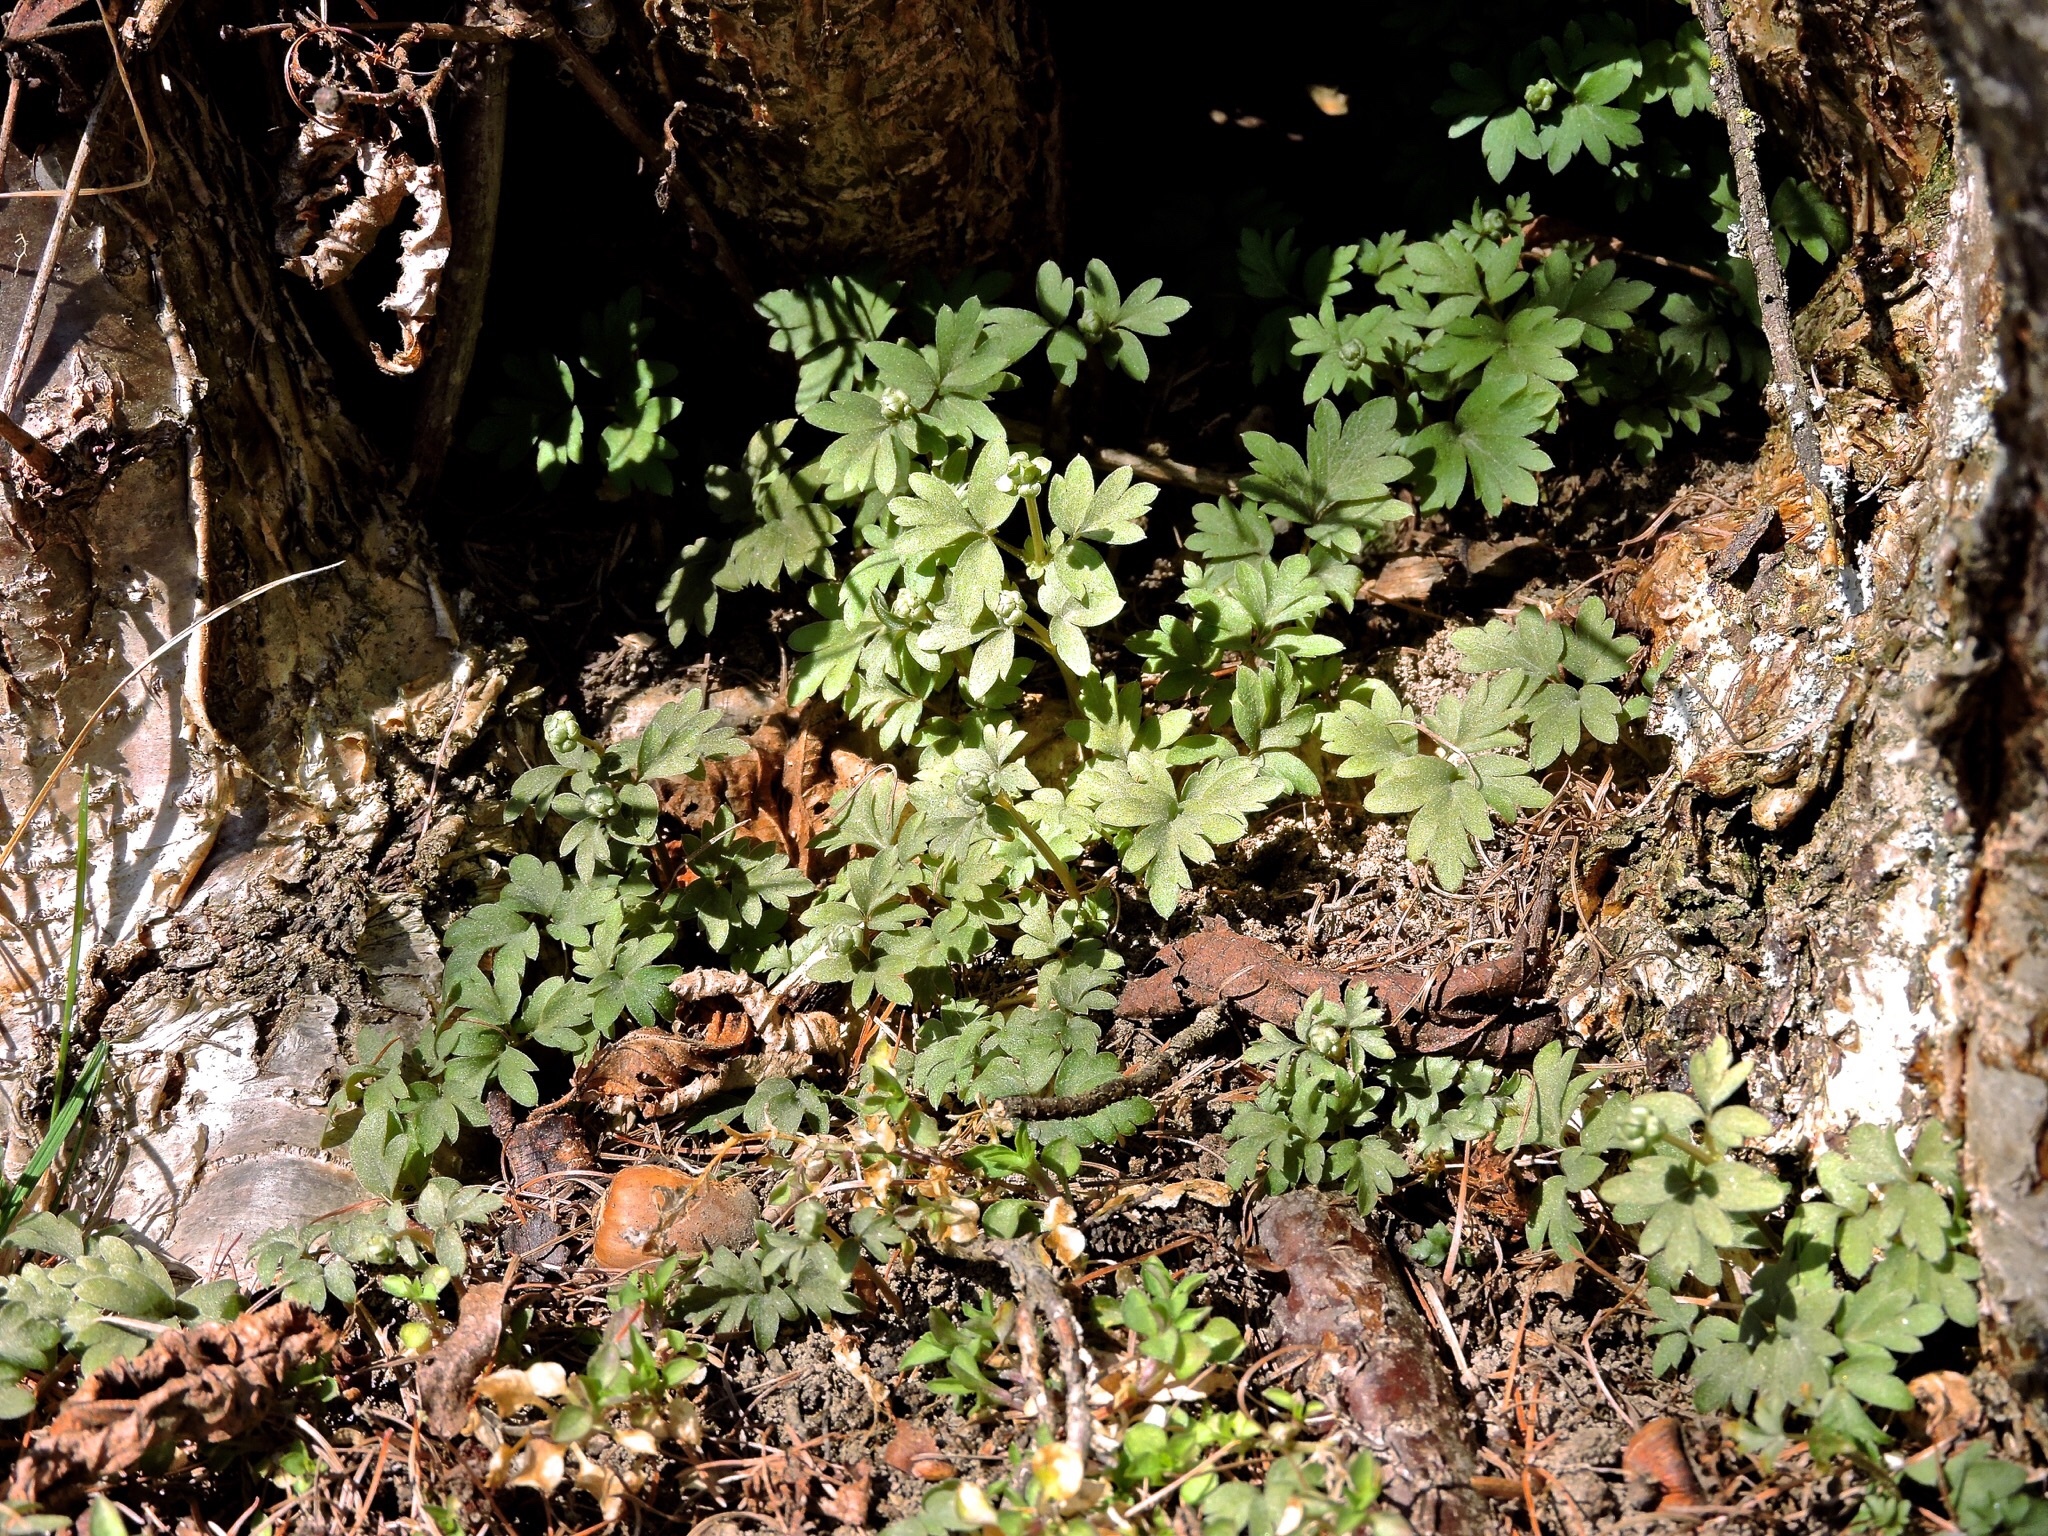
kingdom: Plantae
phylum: Tracheophyta
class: Magnoliopsida
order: Dipsacales
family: Viburnaceae
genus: Adoxa
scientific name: Adoxa moschatellina
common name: Moschatel
